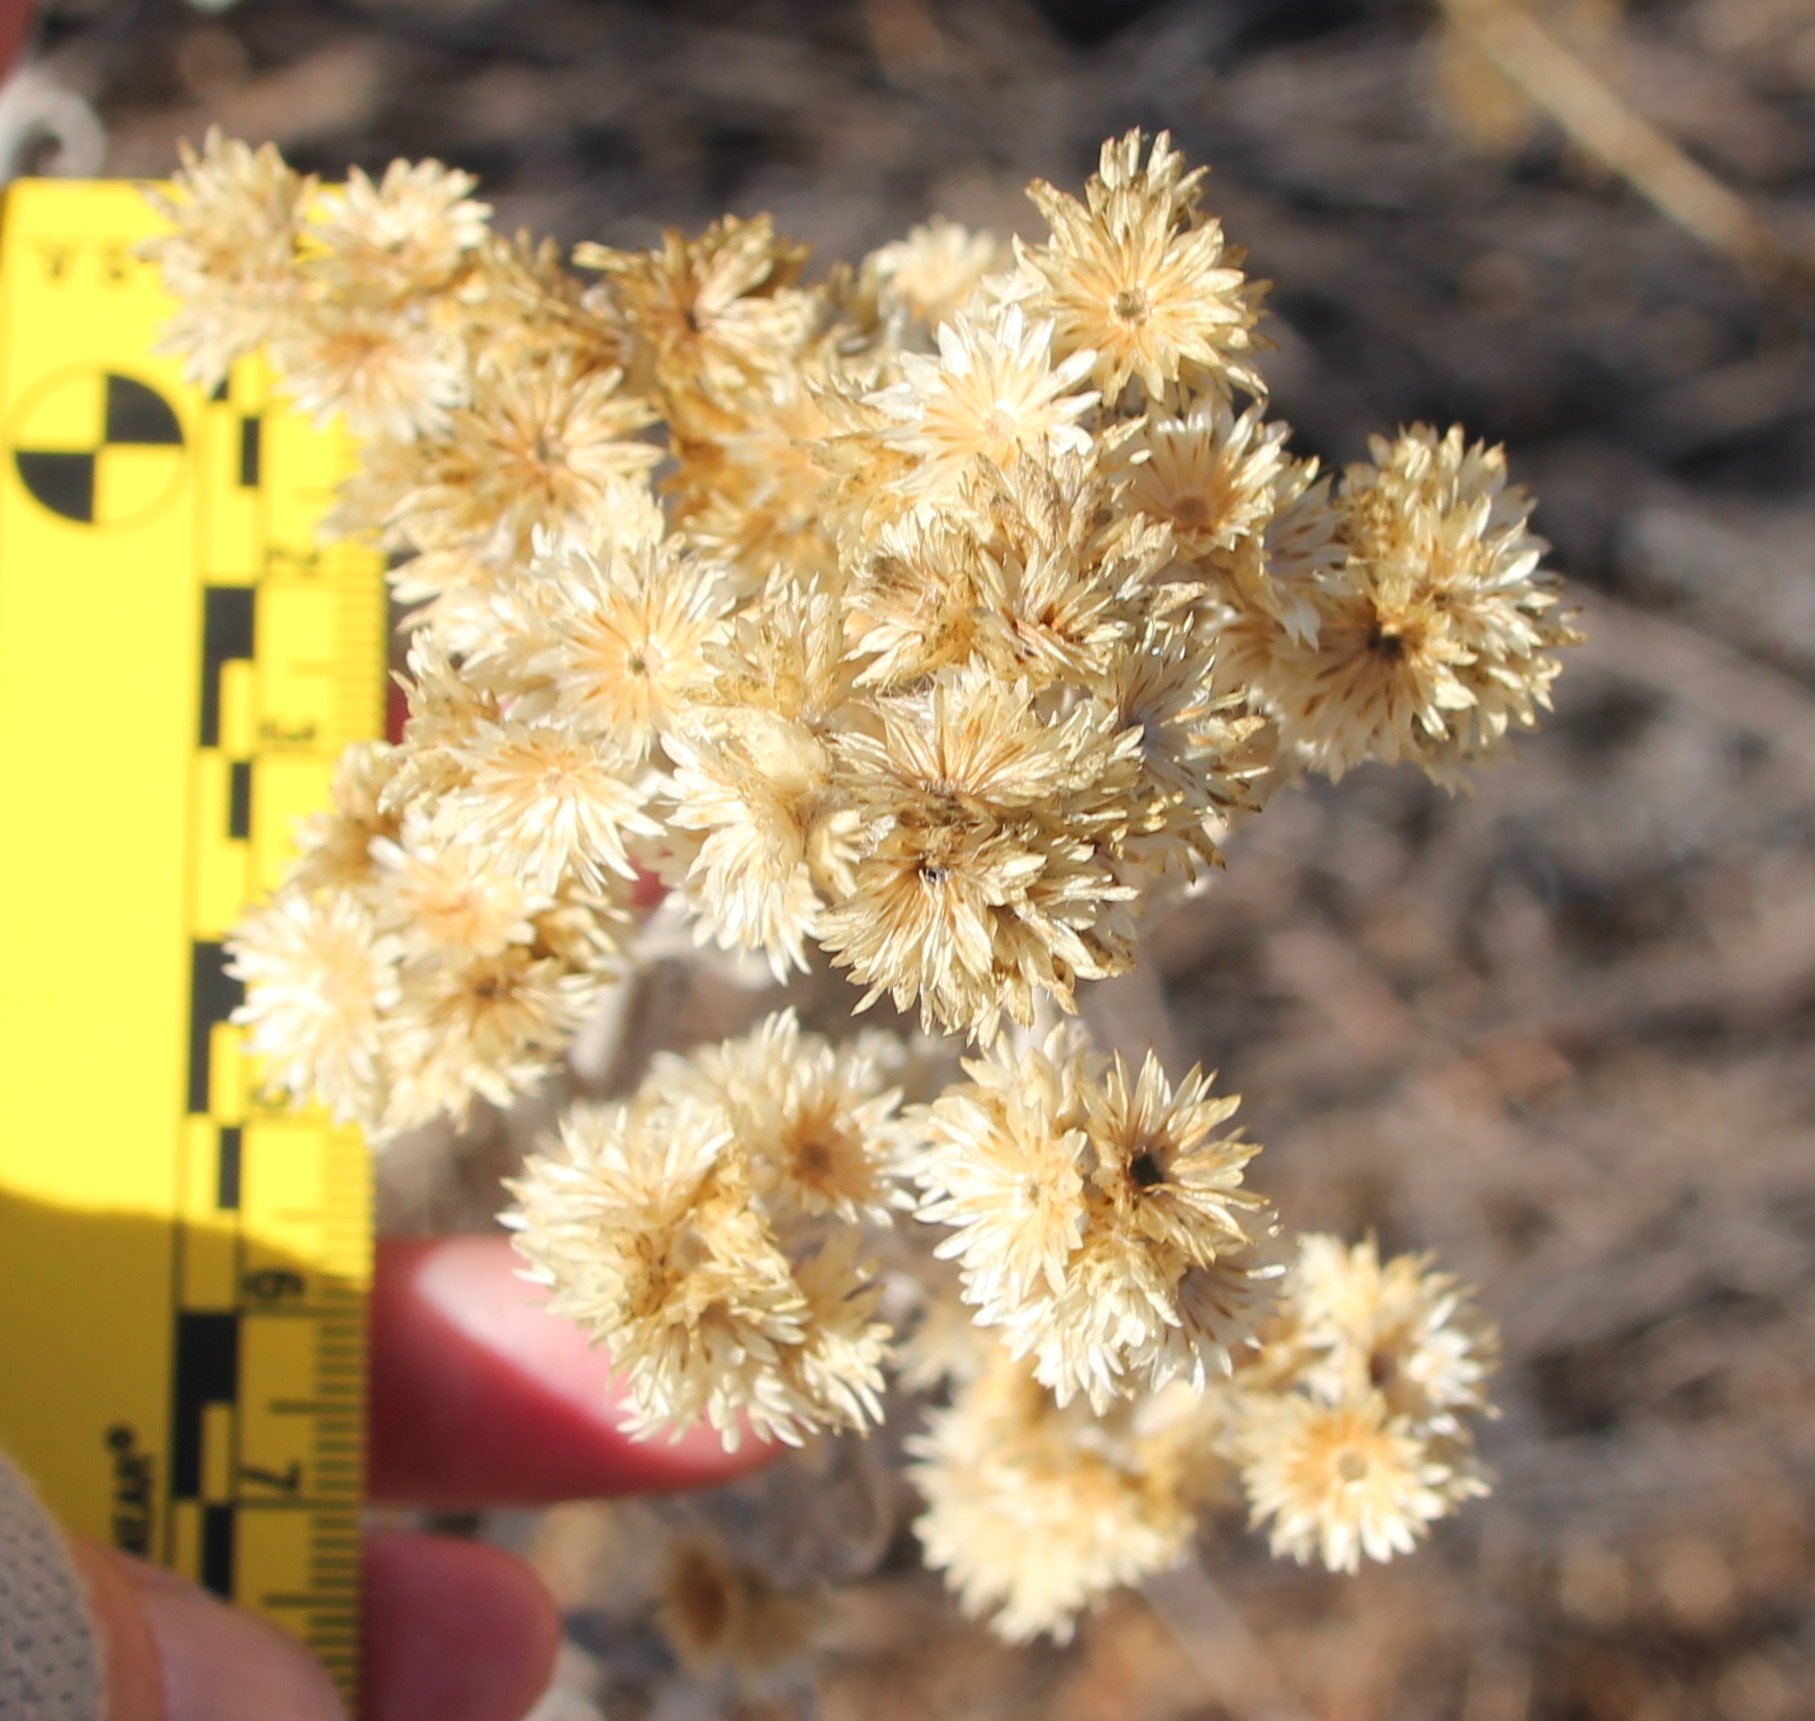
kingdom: Plantae
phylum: Tracheophyta
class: Magnoliopsida
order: Asterales
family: Asteraceae
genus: Pseudognaphalium
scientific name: Pseudognaphalium beneolens
